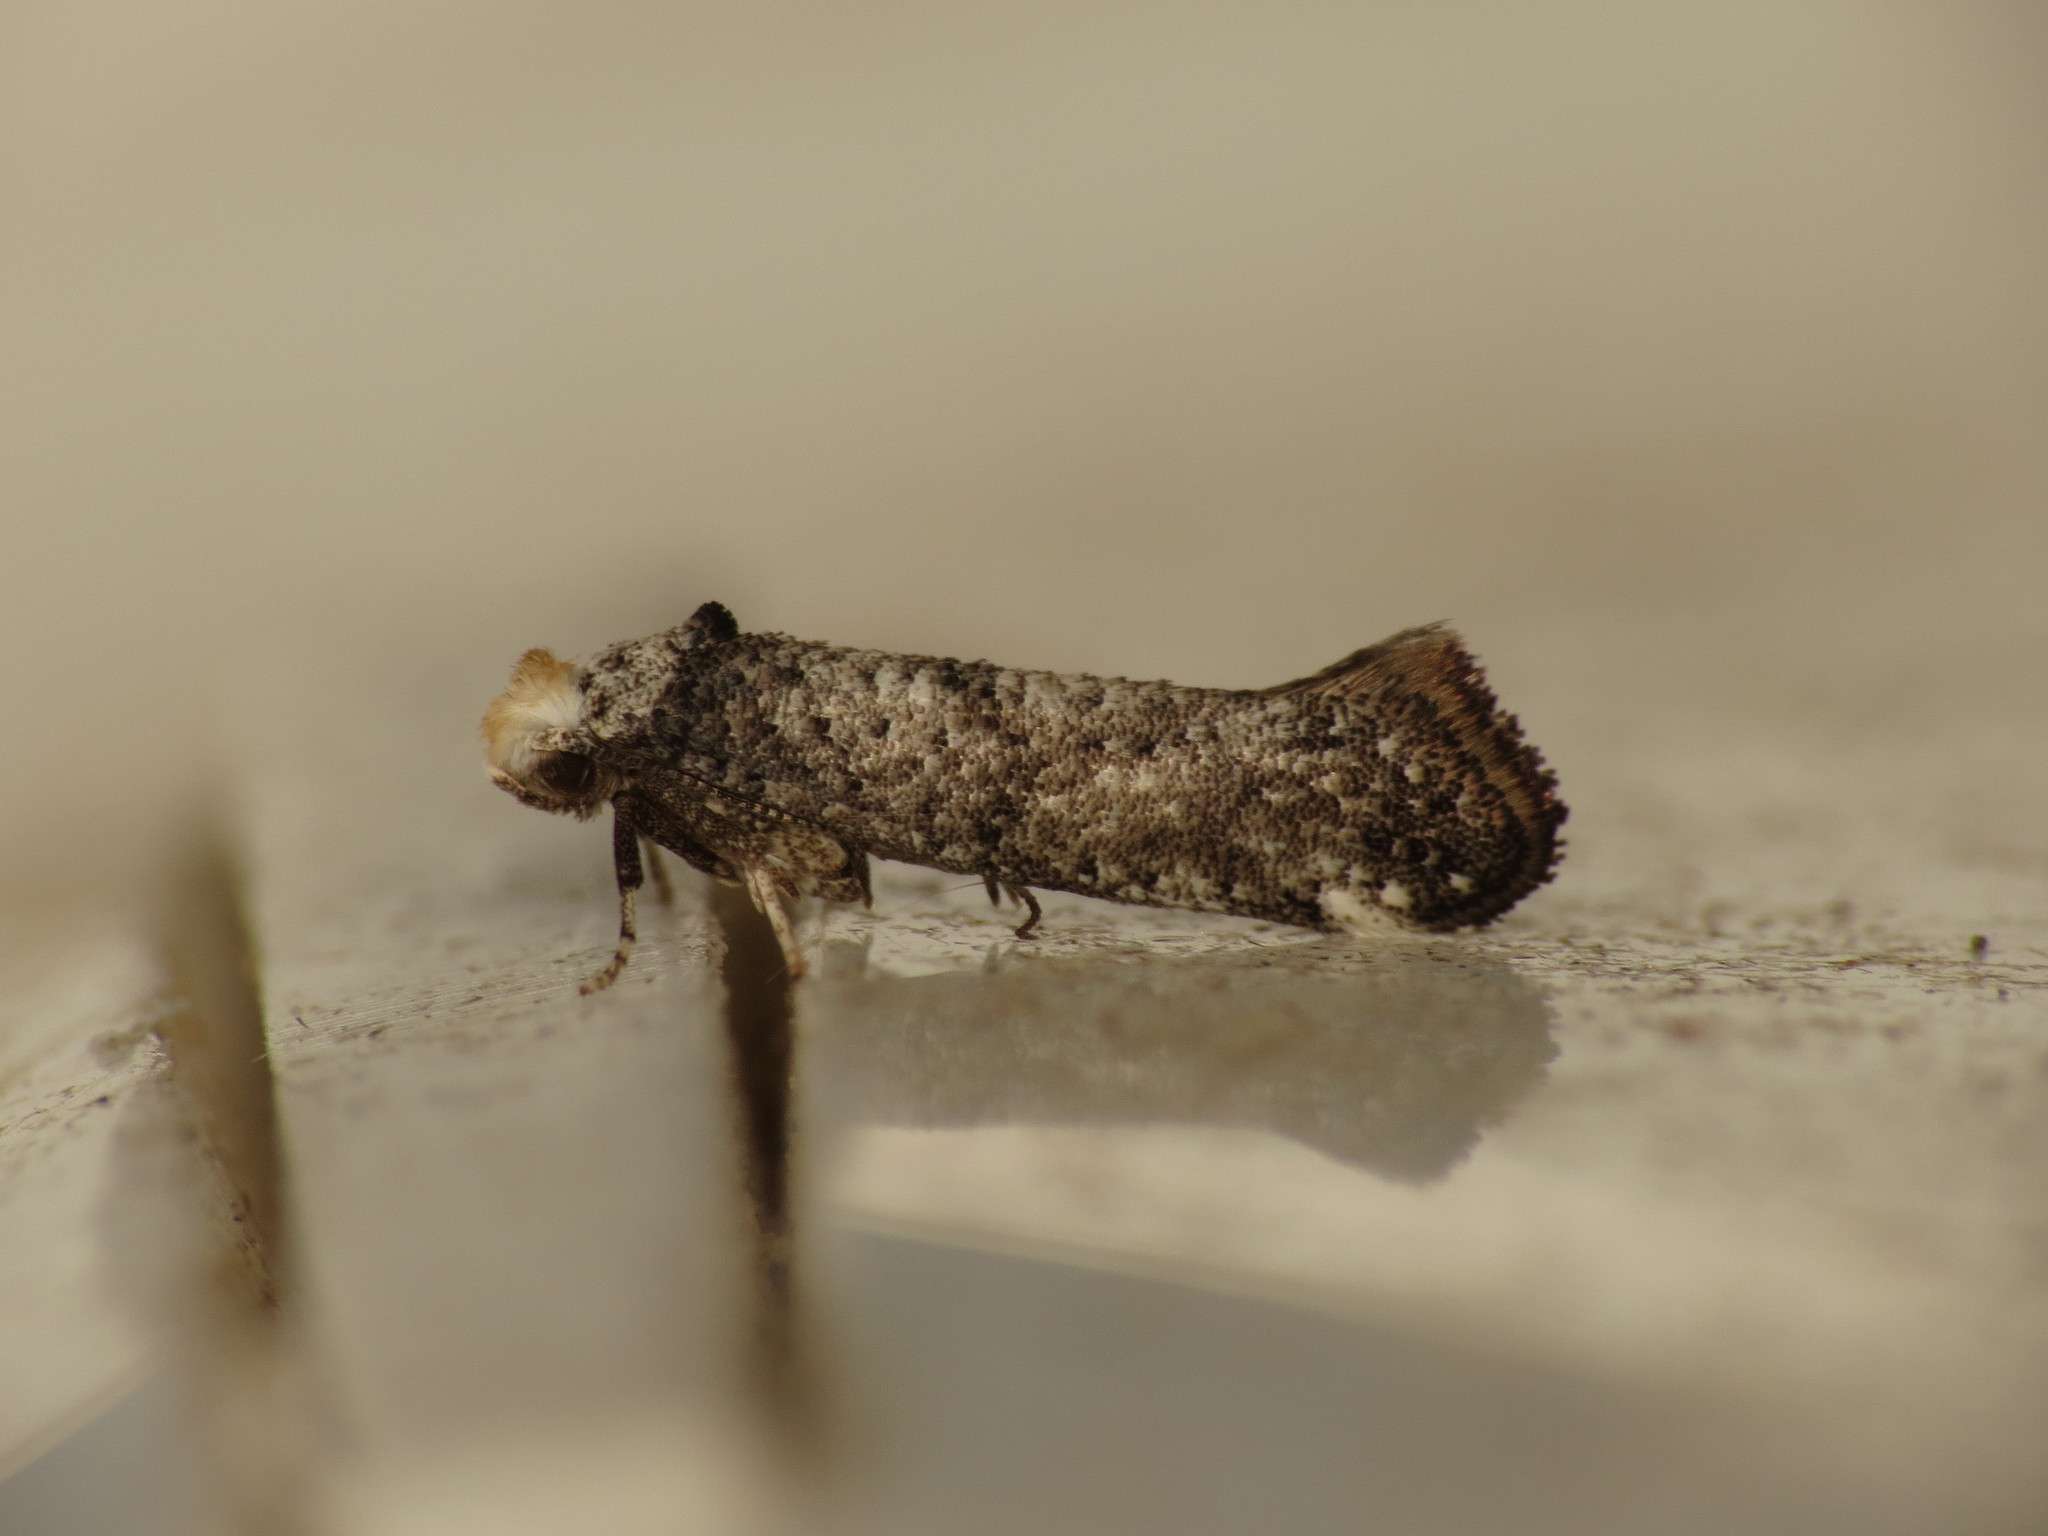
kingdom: Animalia
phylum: Arthropoda
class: Insecta
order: Lepidoptera
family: Yponomeutidae
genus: Swammerdamia
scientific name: Swammerdamia pyrella
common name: Little ermine moth
